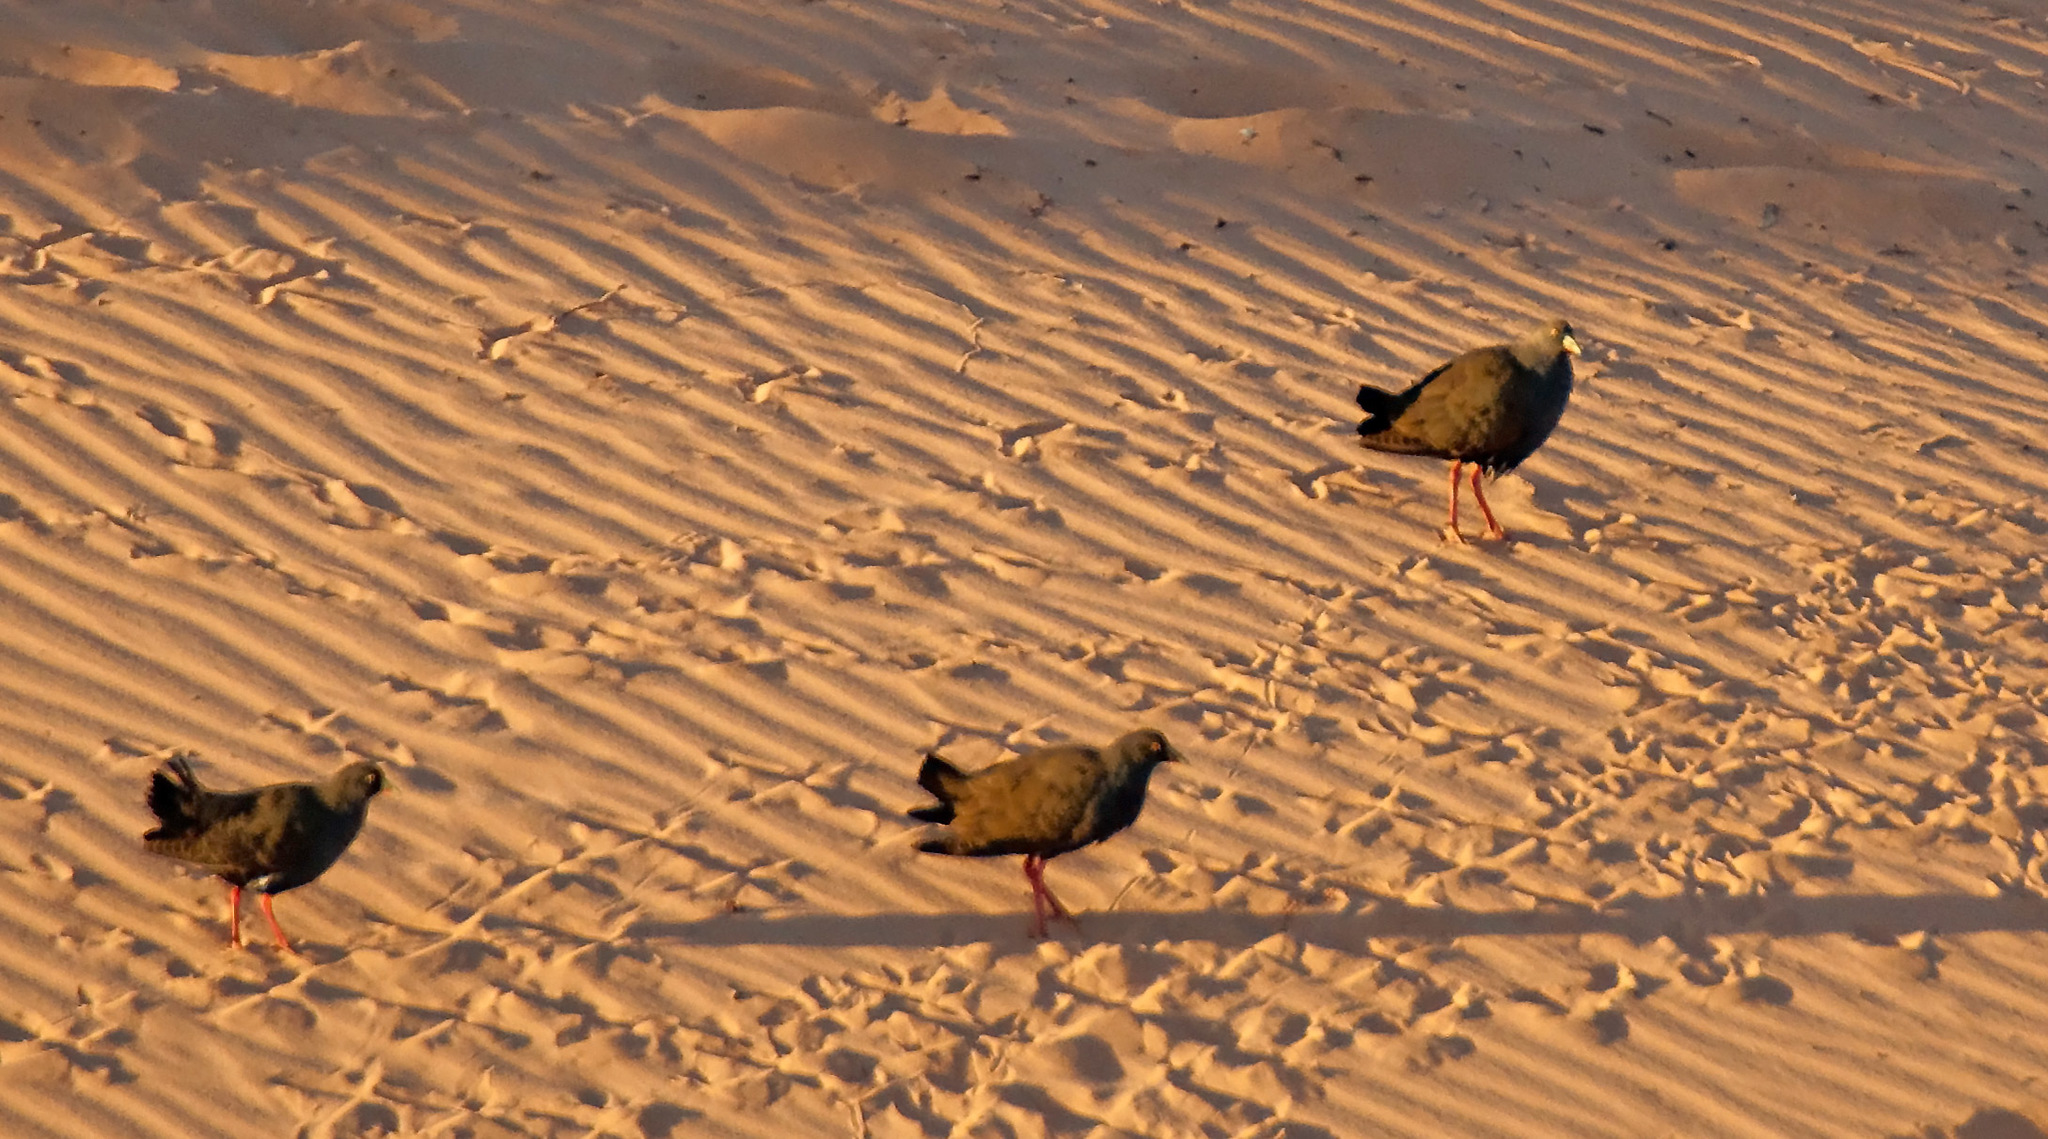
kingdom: Animalia
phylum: Chordata
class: Aves
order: Gruiformes
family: Rallidae
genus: Gallinula
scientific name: Gallinula ventralis
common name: Black-tailed nativehen
